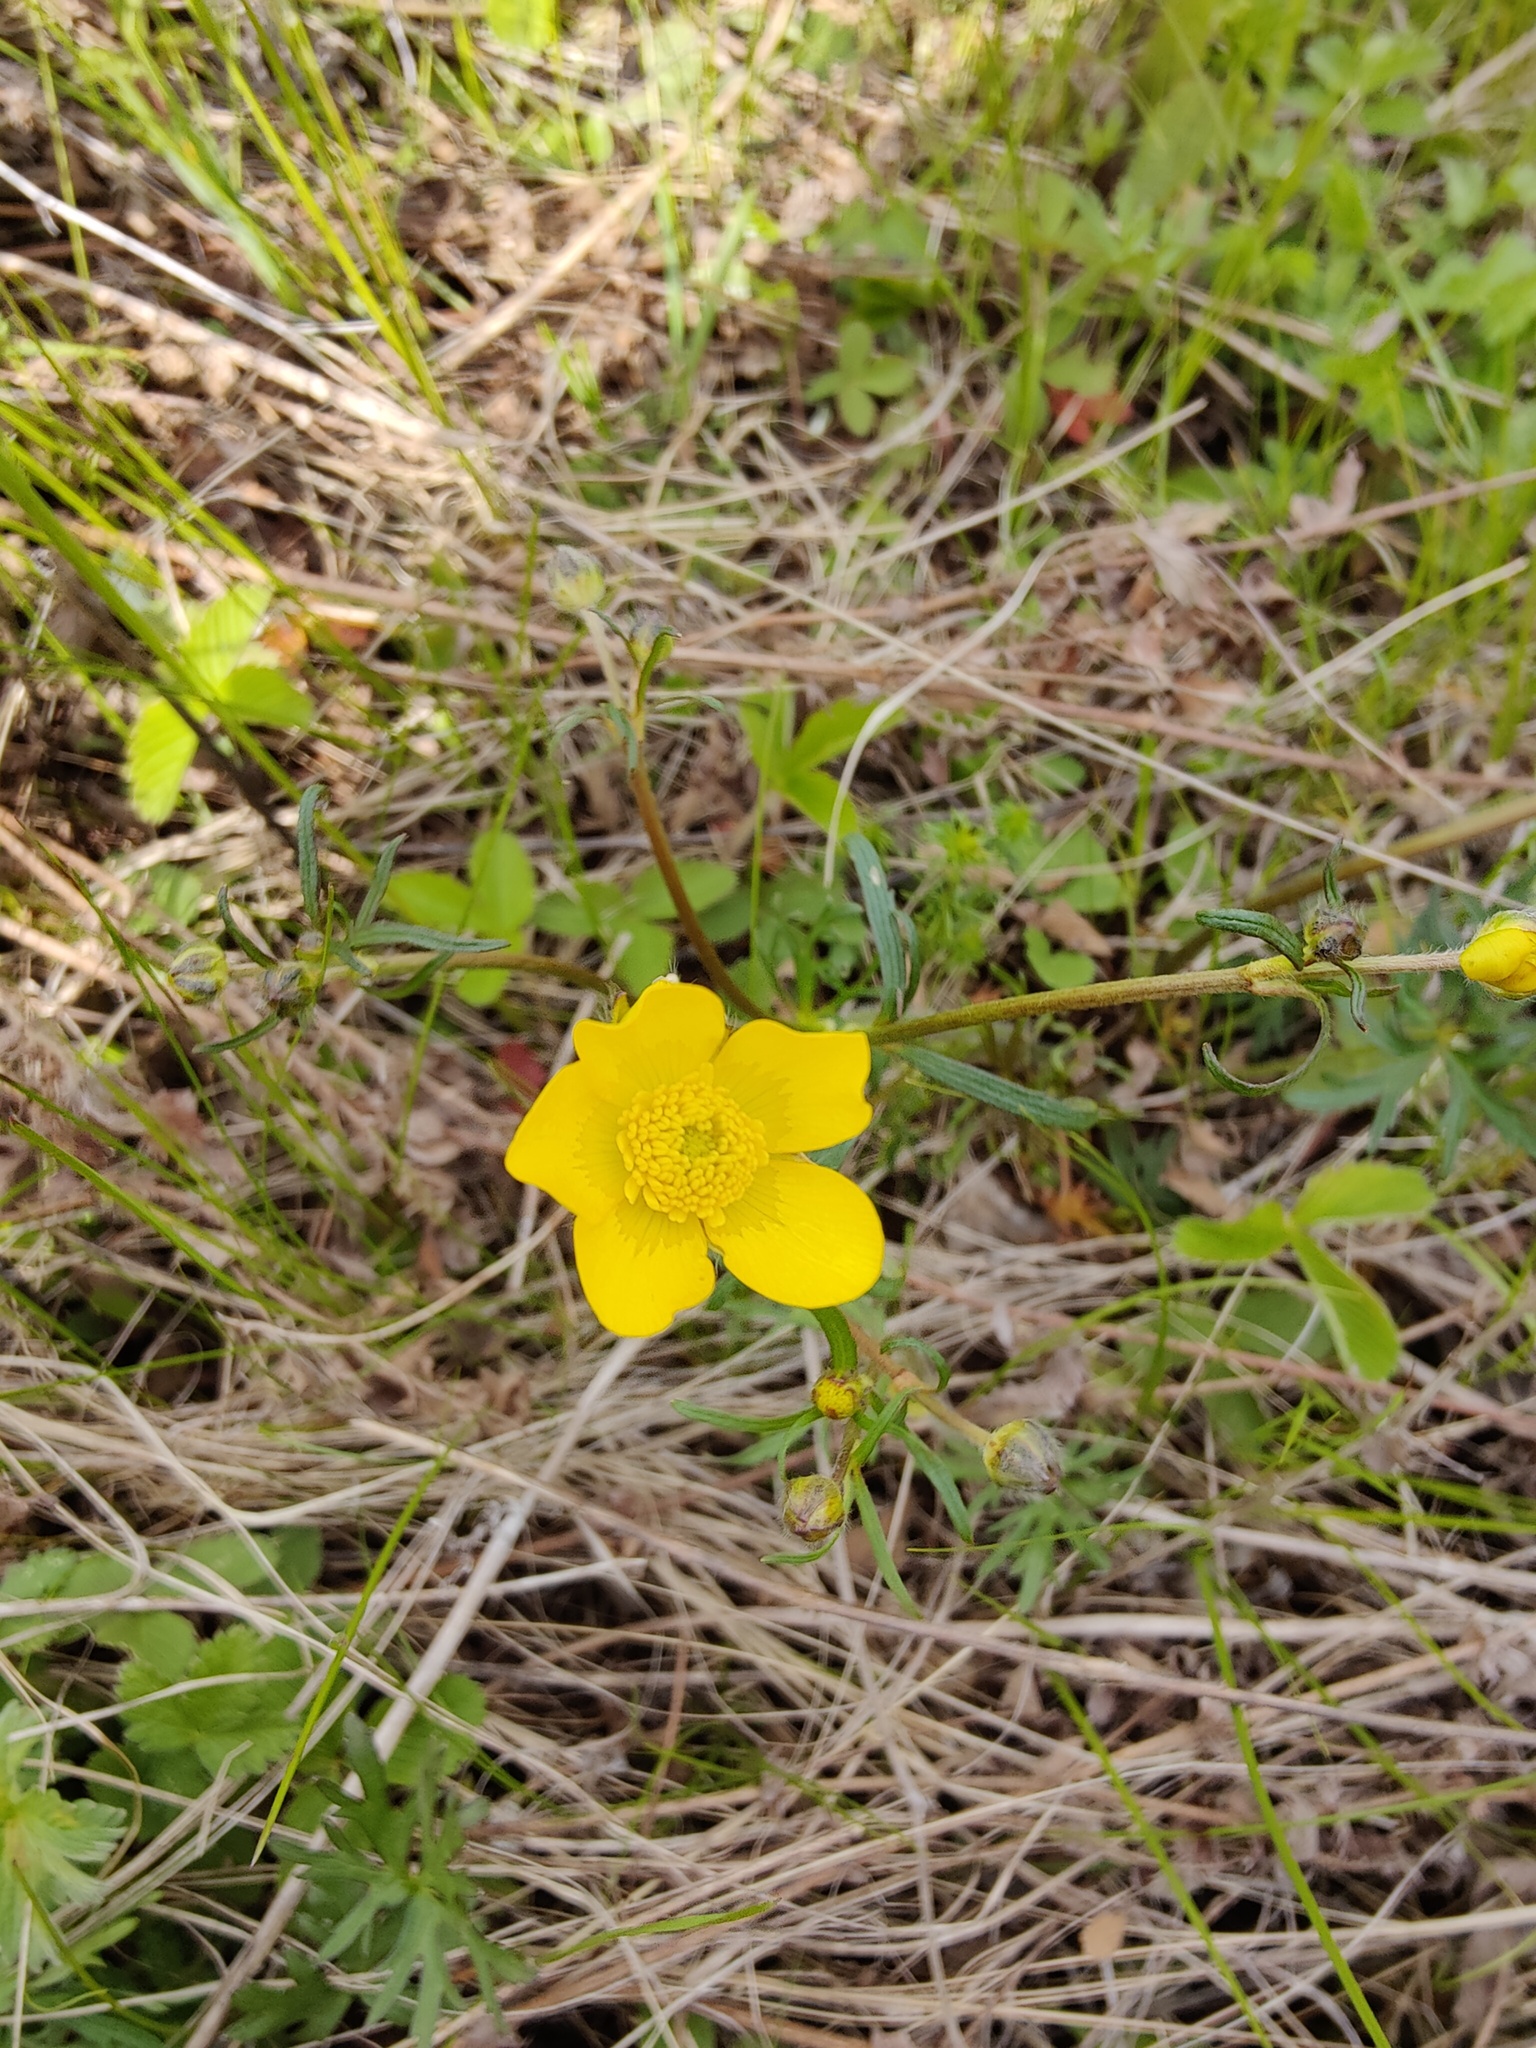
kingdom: Plantae
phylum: Tracheophyta
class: Magnoliopsida
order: Ranunculales
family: Ranunculaceae
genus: Ranunculus
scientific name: Ranunculus polyanthemos
